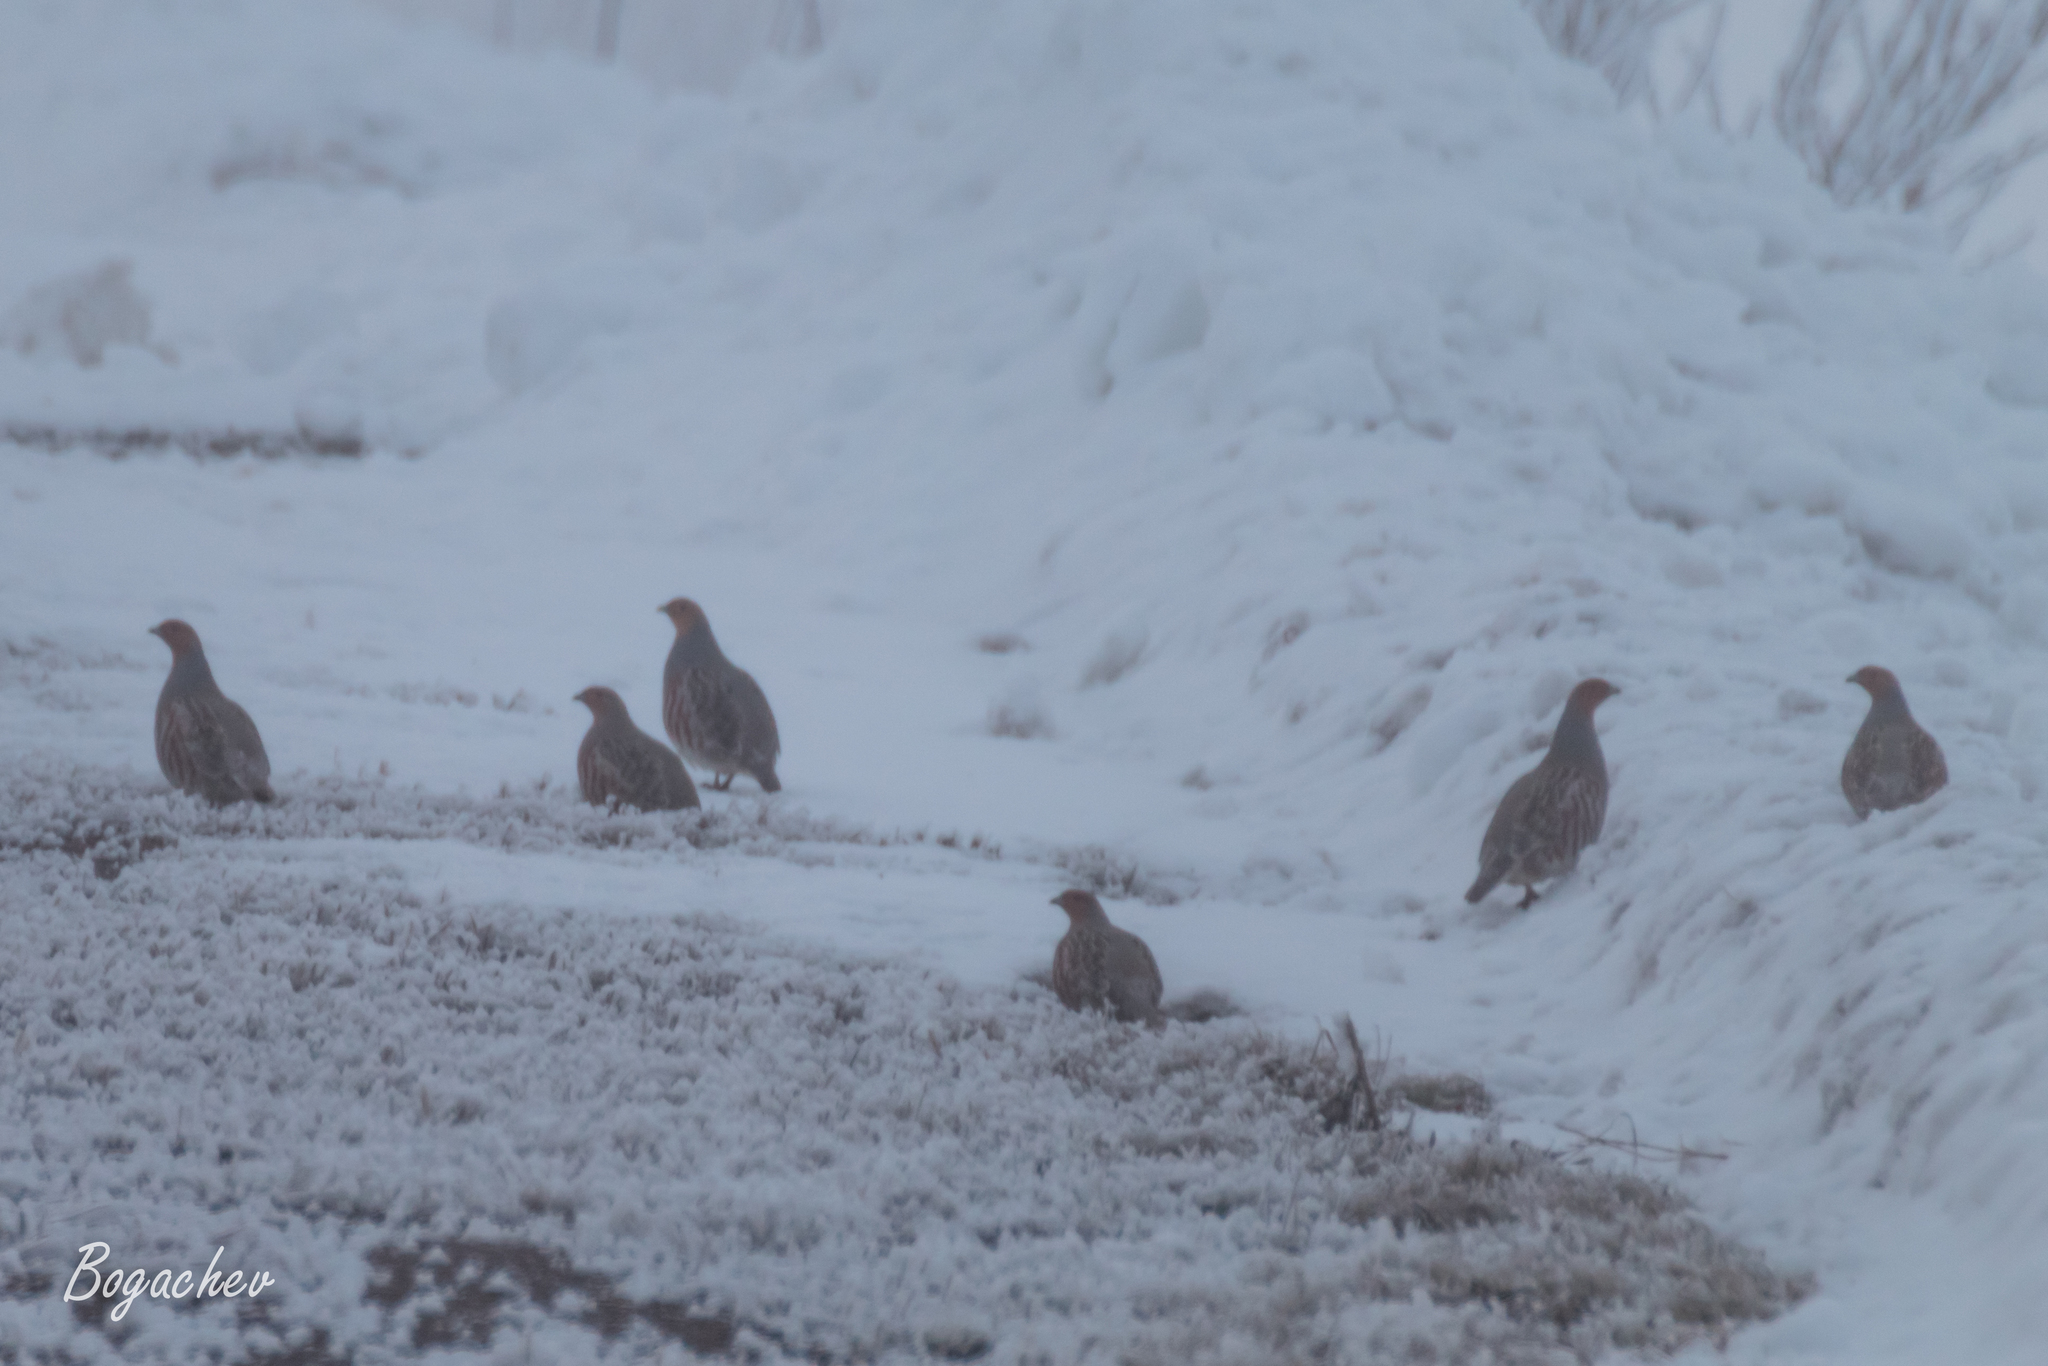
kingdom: Animalia
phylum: Chordata
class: Aves
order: Galliformes
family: Phasianidae
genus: Perdix
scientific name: Perdix perdix
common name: Grey partridge
